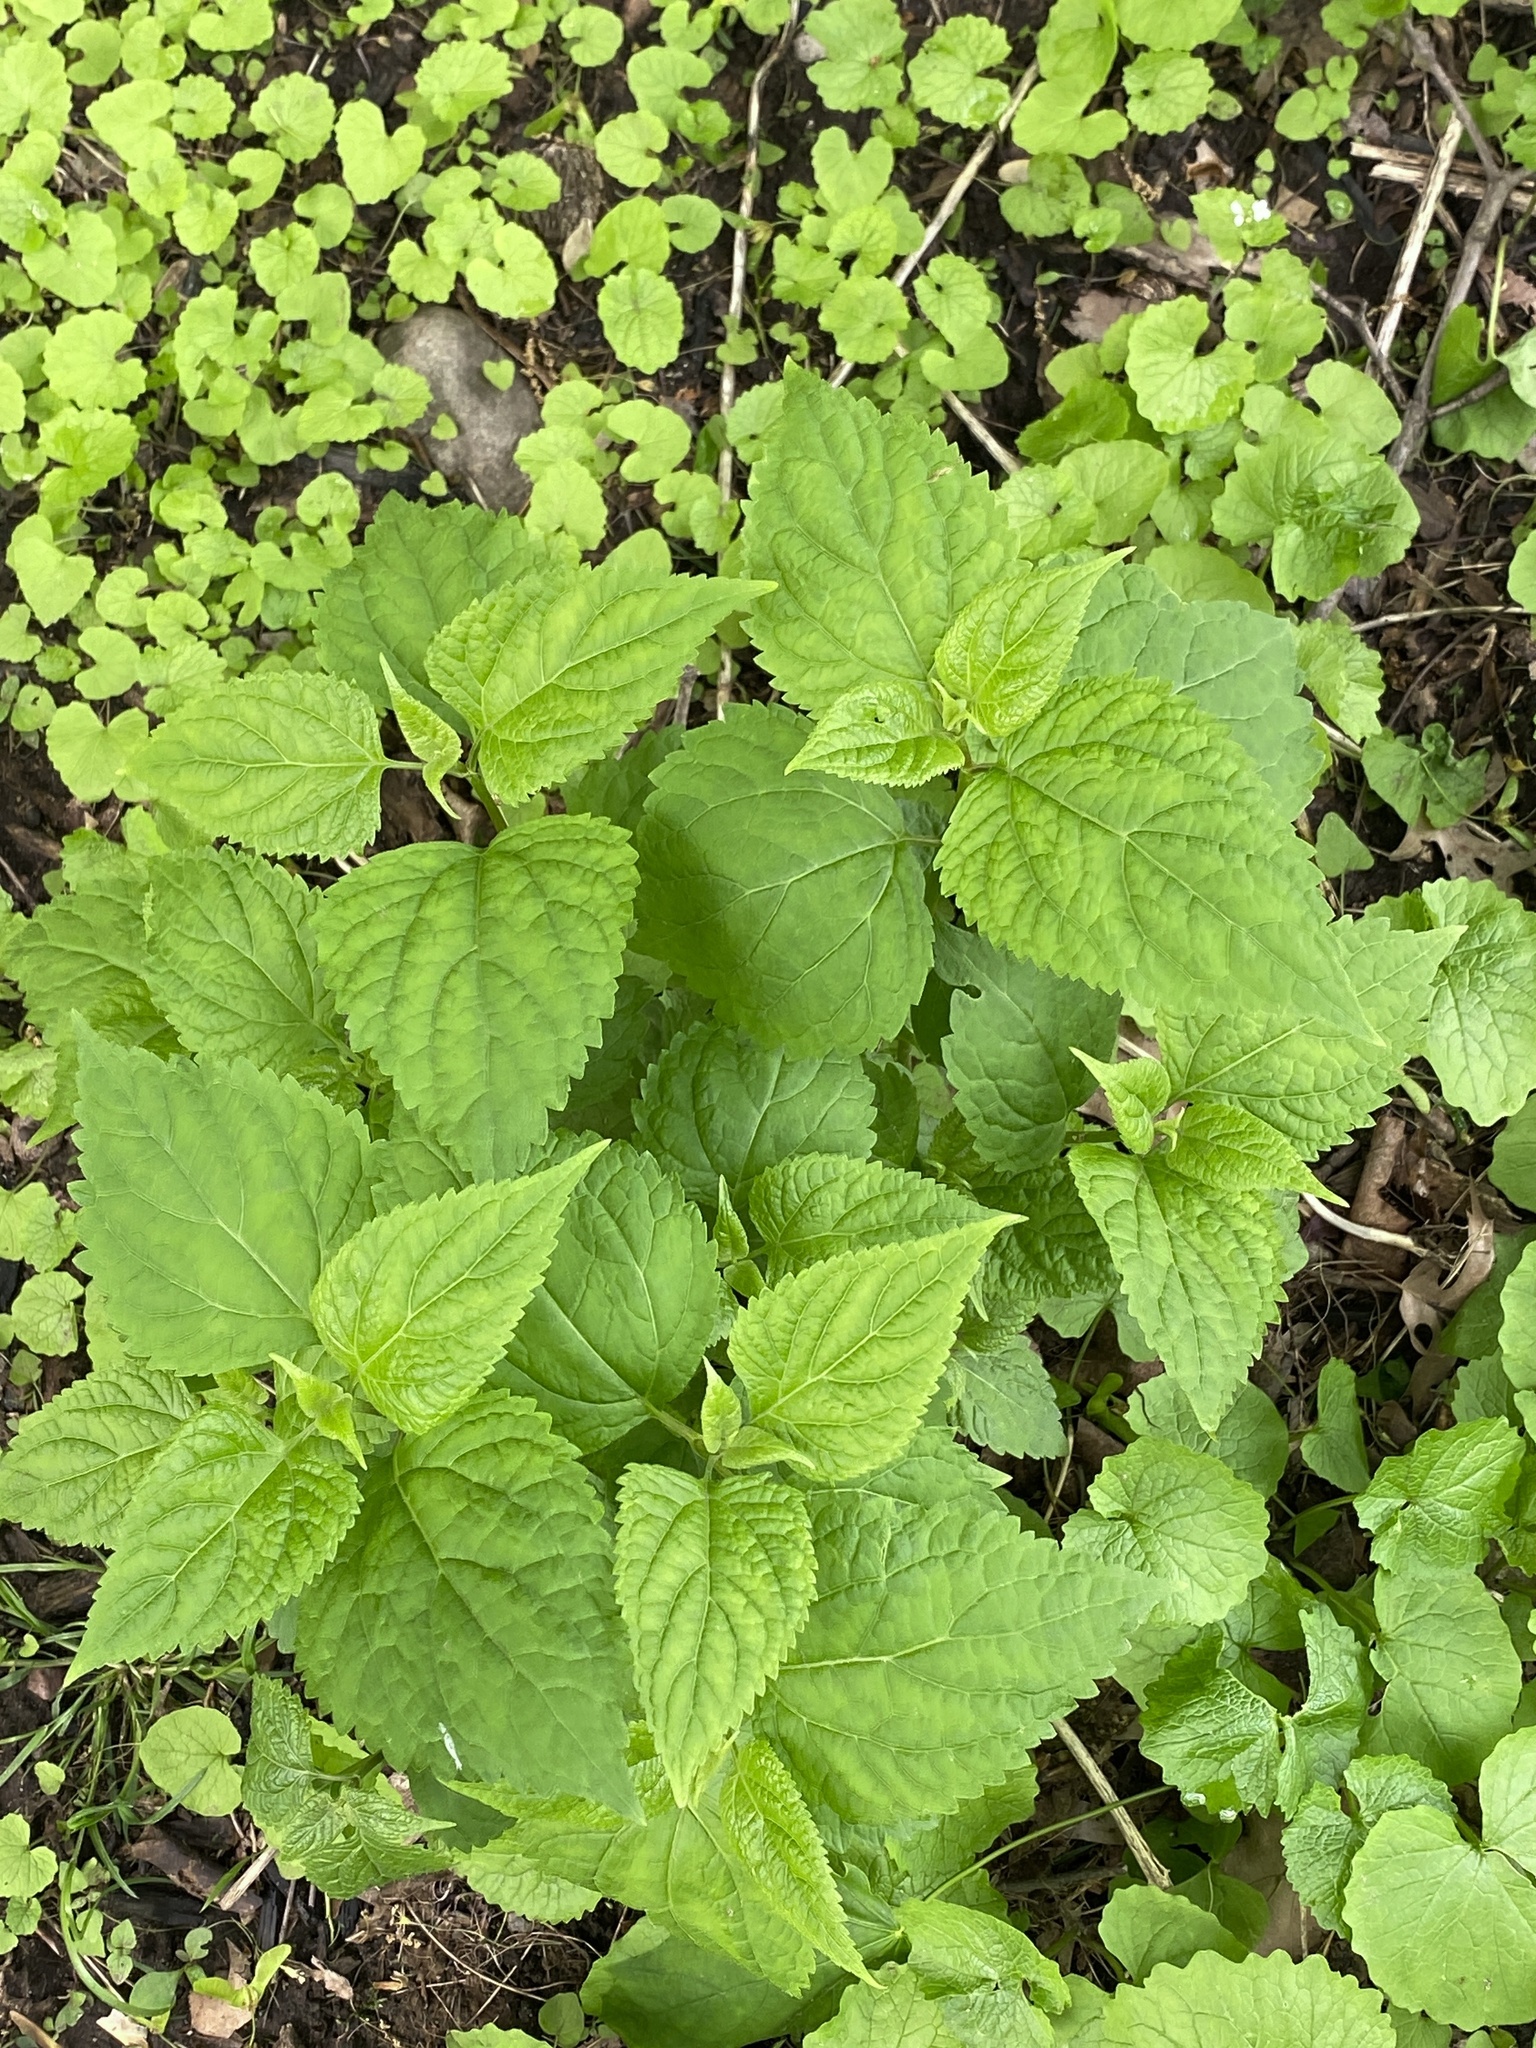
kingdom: Plantae
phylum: Tracheophyta
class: Magnoliopsida
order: Asterales
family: Asteraceae
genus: Ageratina
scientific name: Ageratina altissima
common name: White snakeroot
